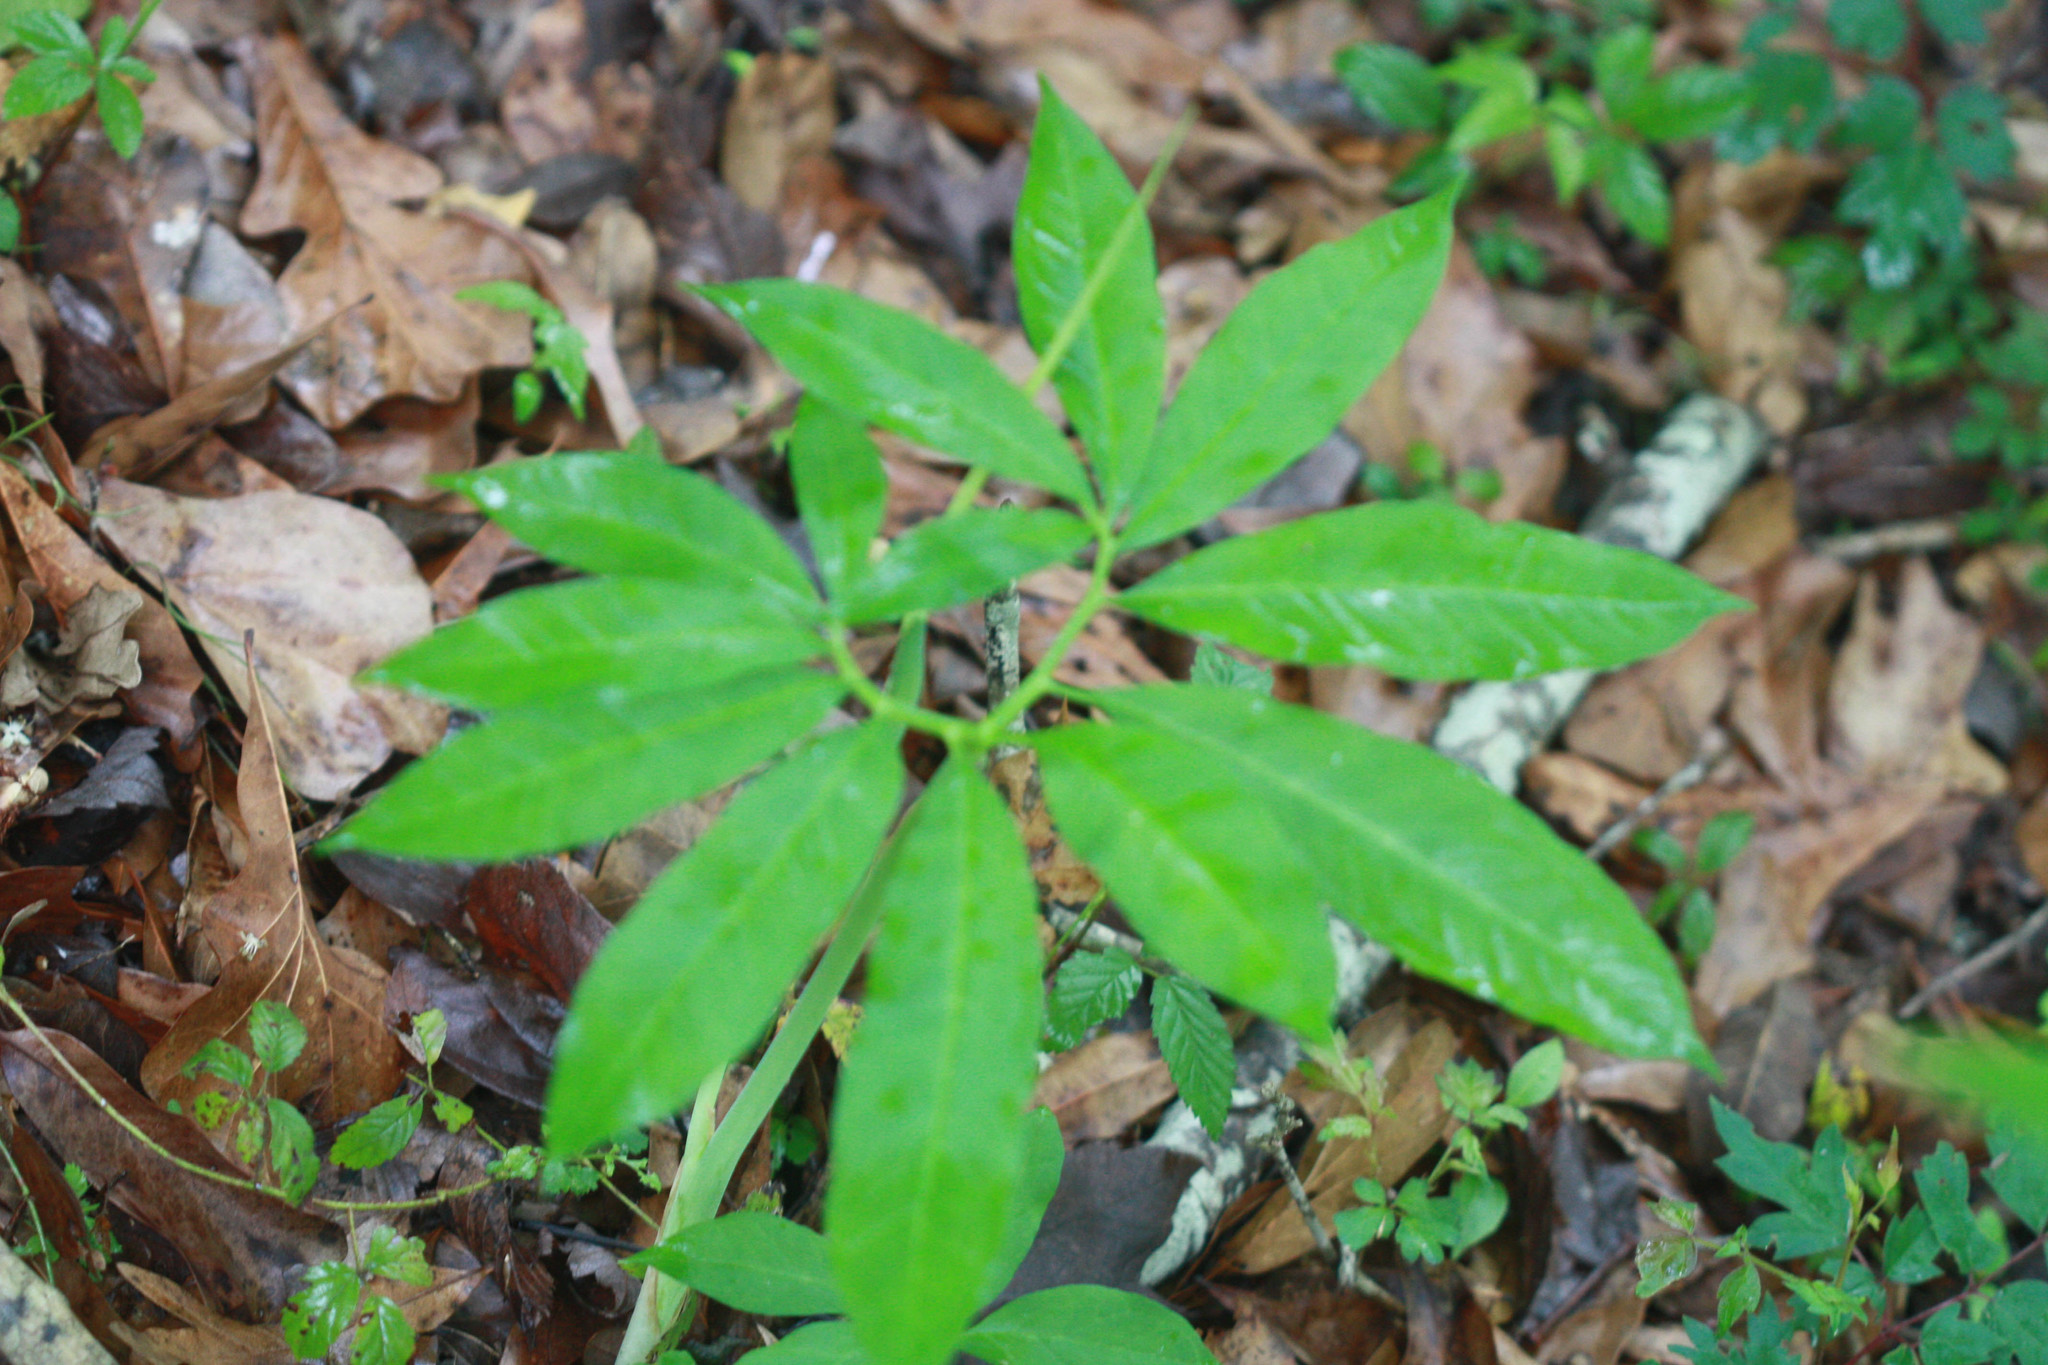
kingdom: Plantae
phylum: Tracheophyta
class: Liliopsida
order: Alismatales
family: Araceae
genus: Arisaema
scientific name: Arisaema dracontium
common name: Dragon-arum
